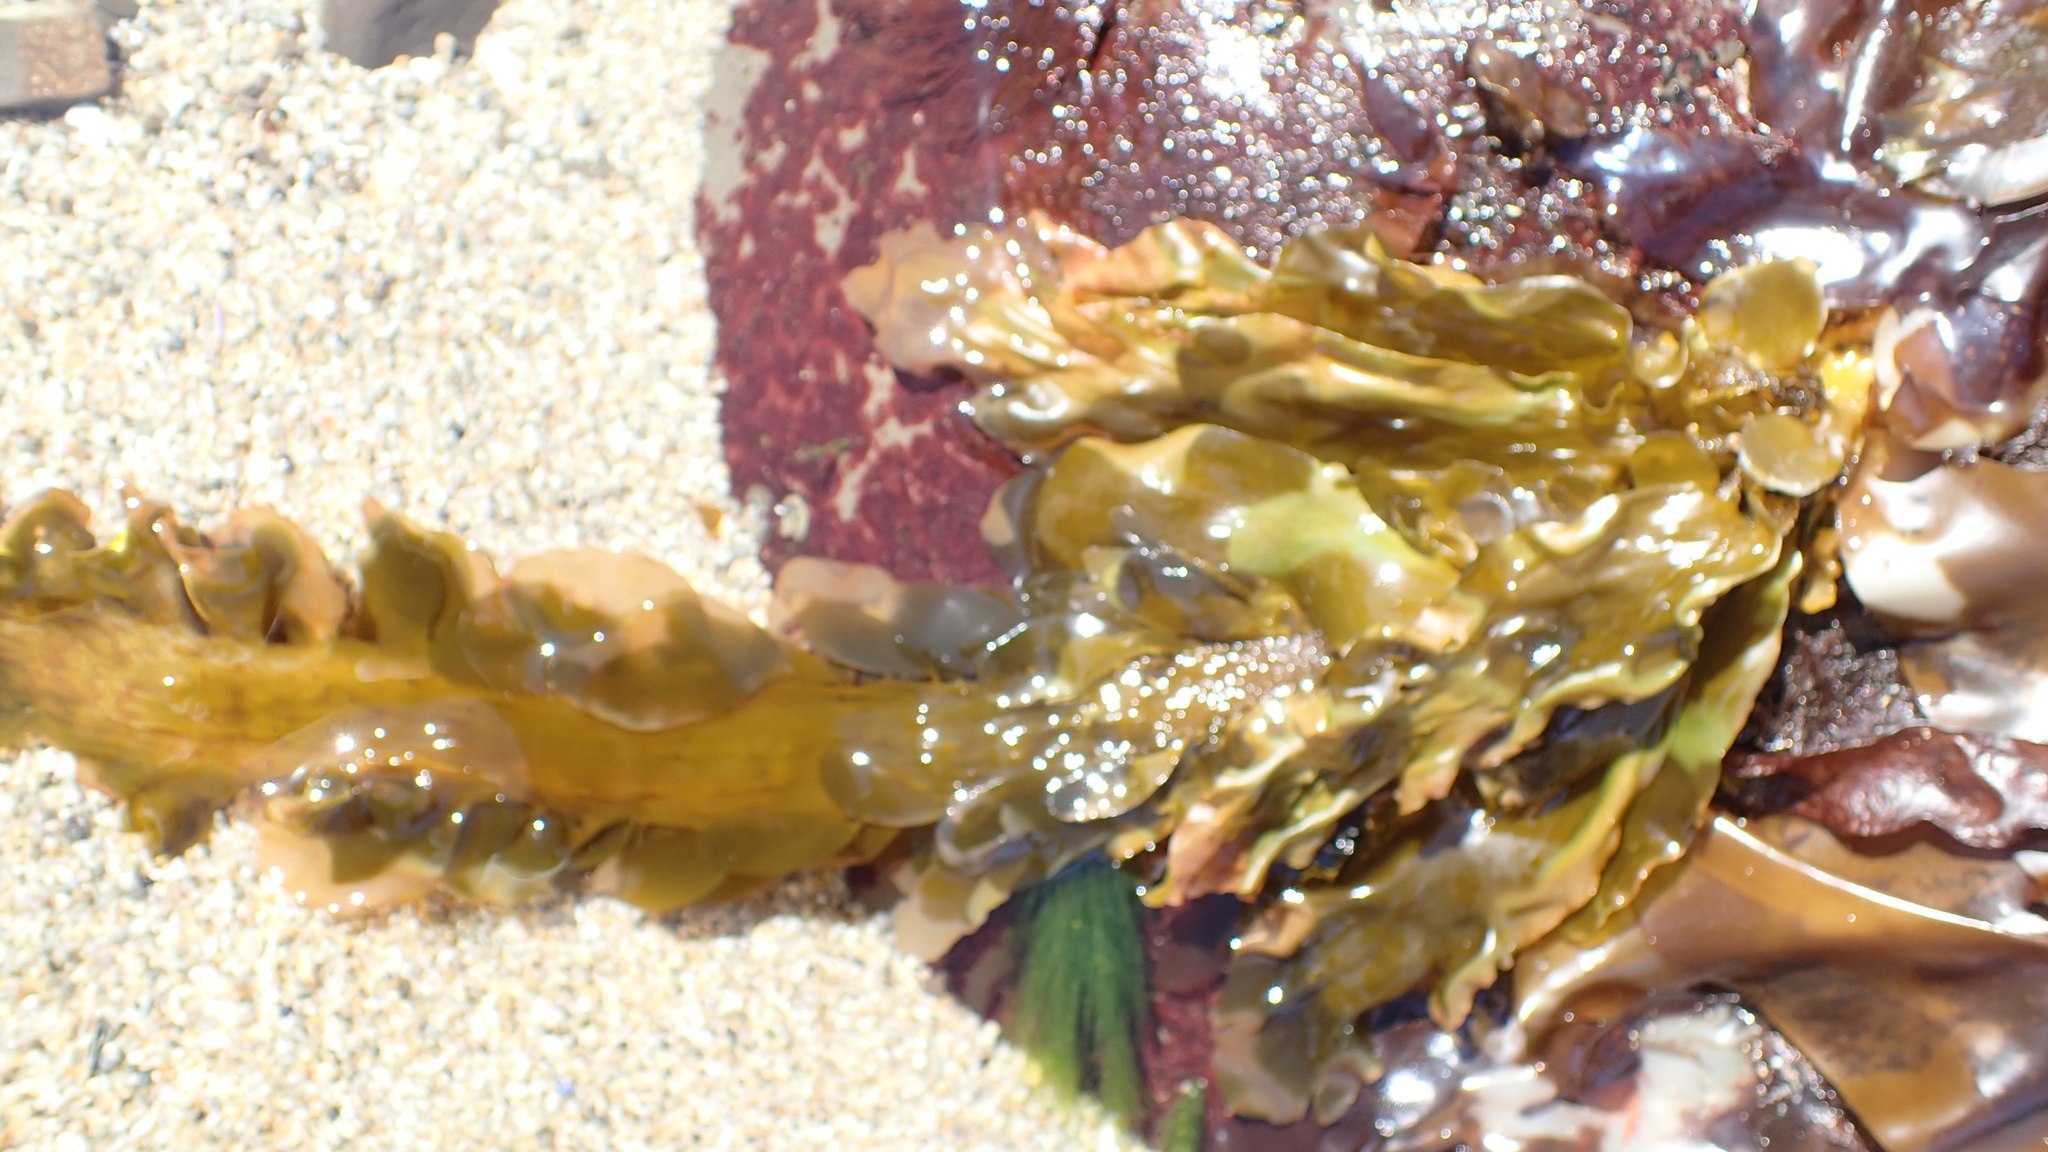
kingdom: Chromista
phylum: Ochrophyta
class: Phaeophyceae
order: Laminariales
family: Lessoniaceae
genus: Egregia
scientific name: Egregia menziesii
